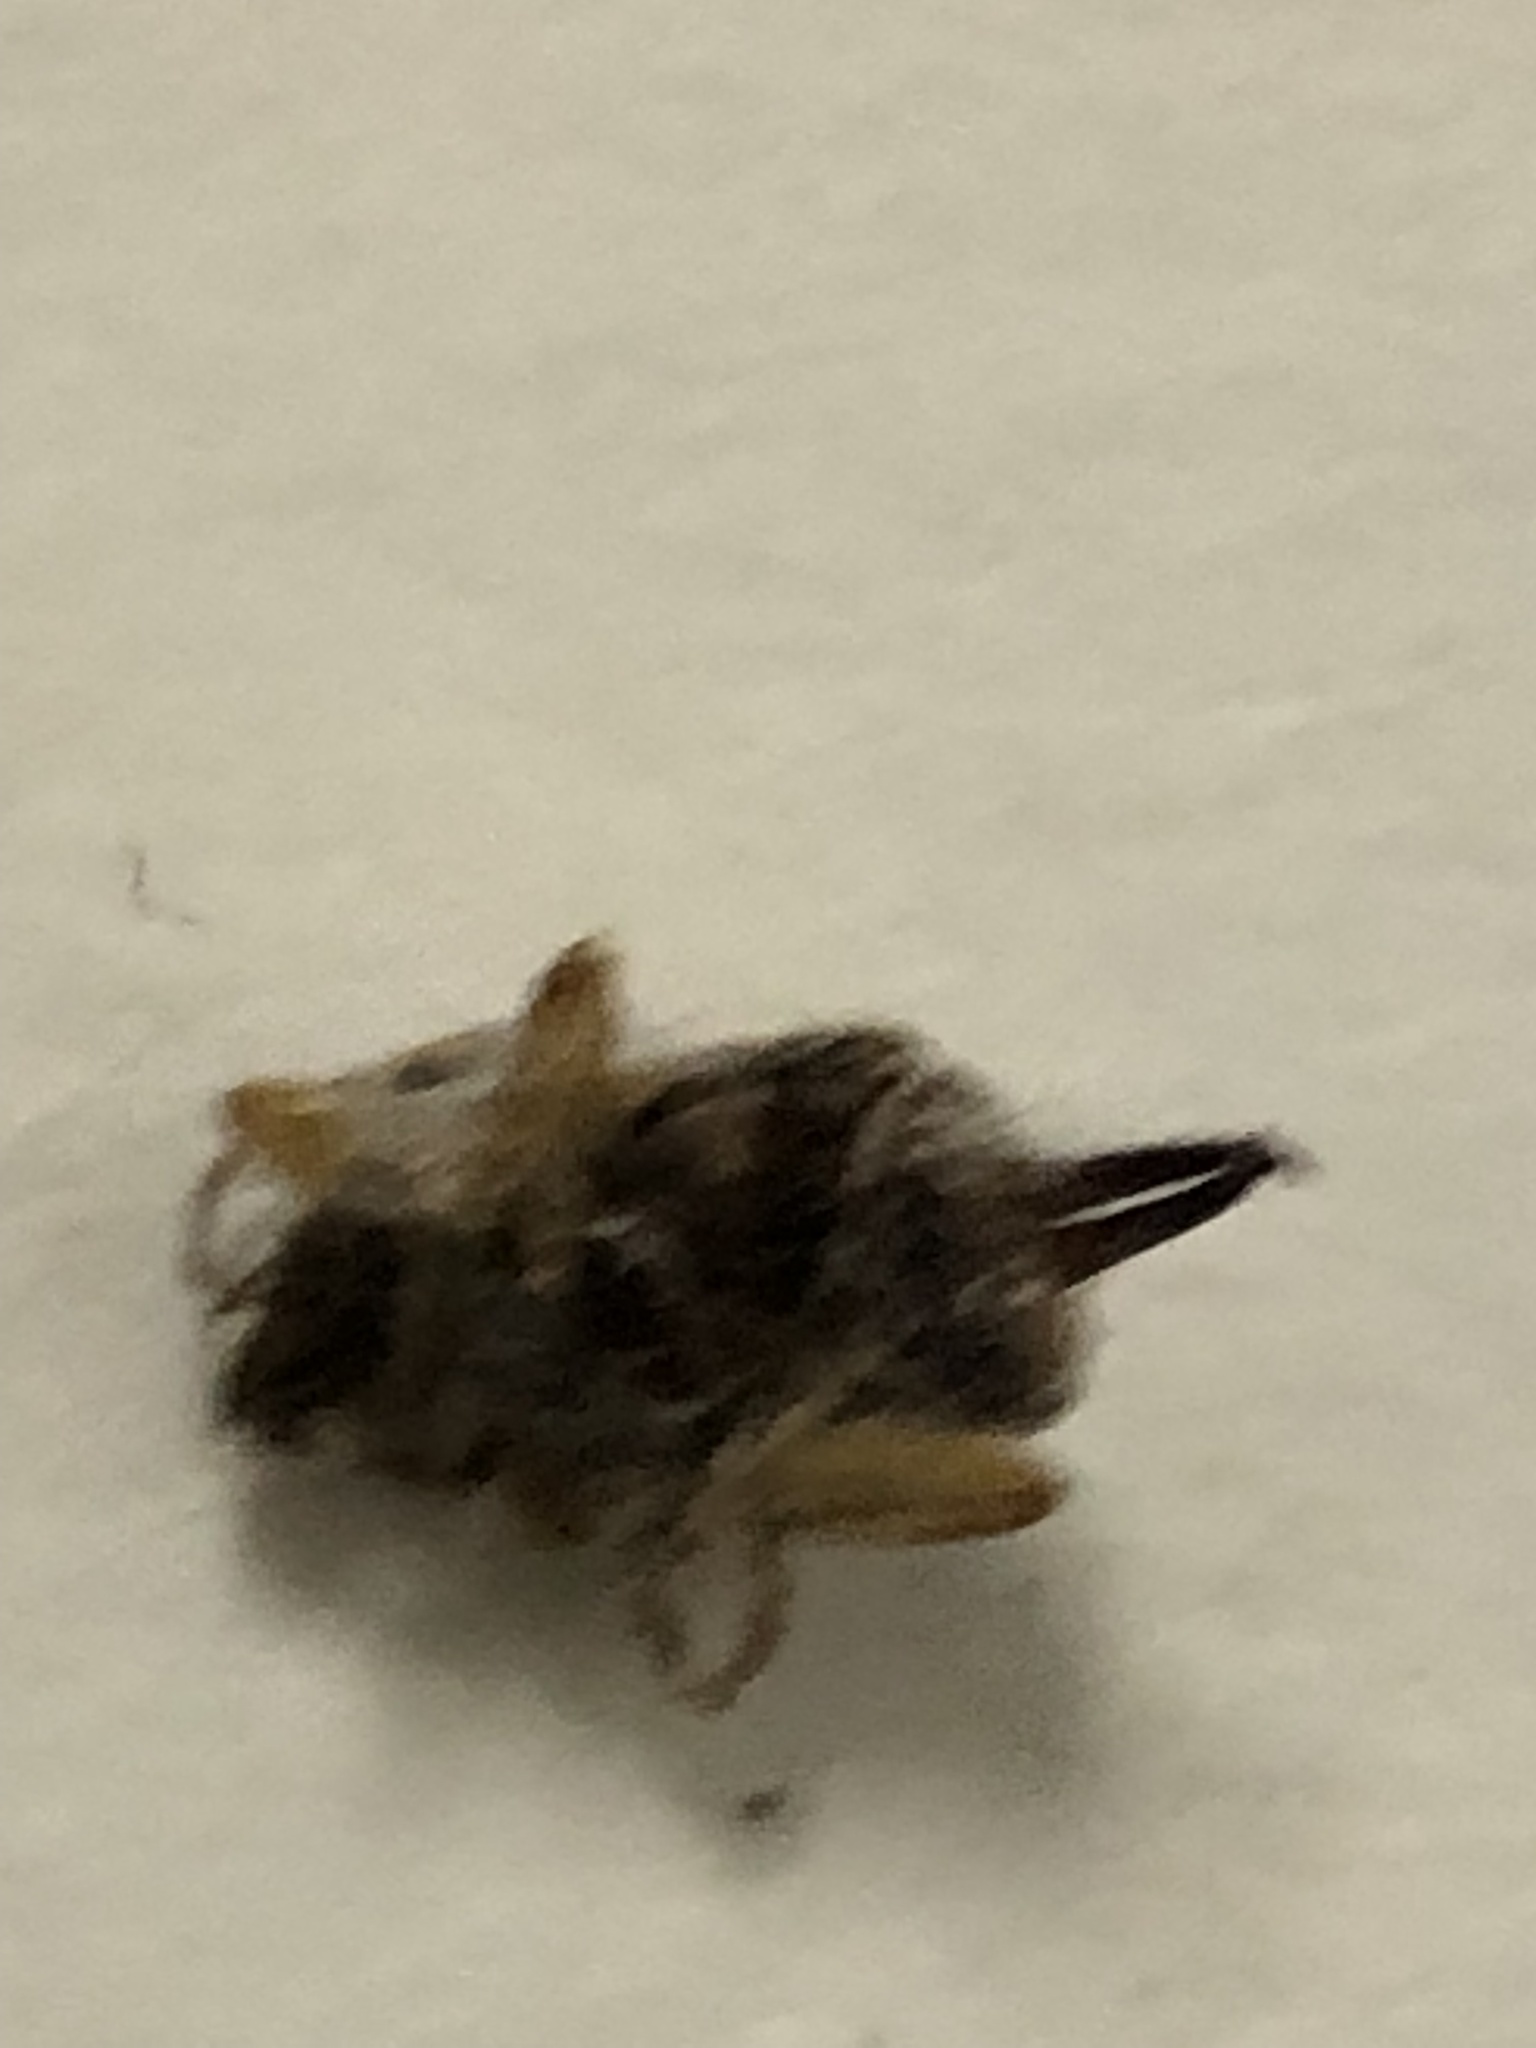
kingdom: Animalia
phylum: Arthropoda
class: Insecta
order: Dermaptera
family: Forficulidae
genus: Forficula
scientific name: Forficula
